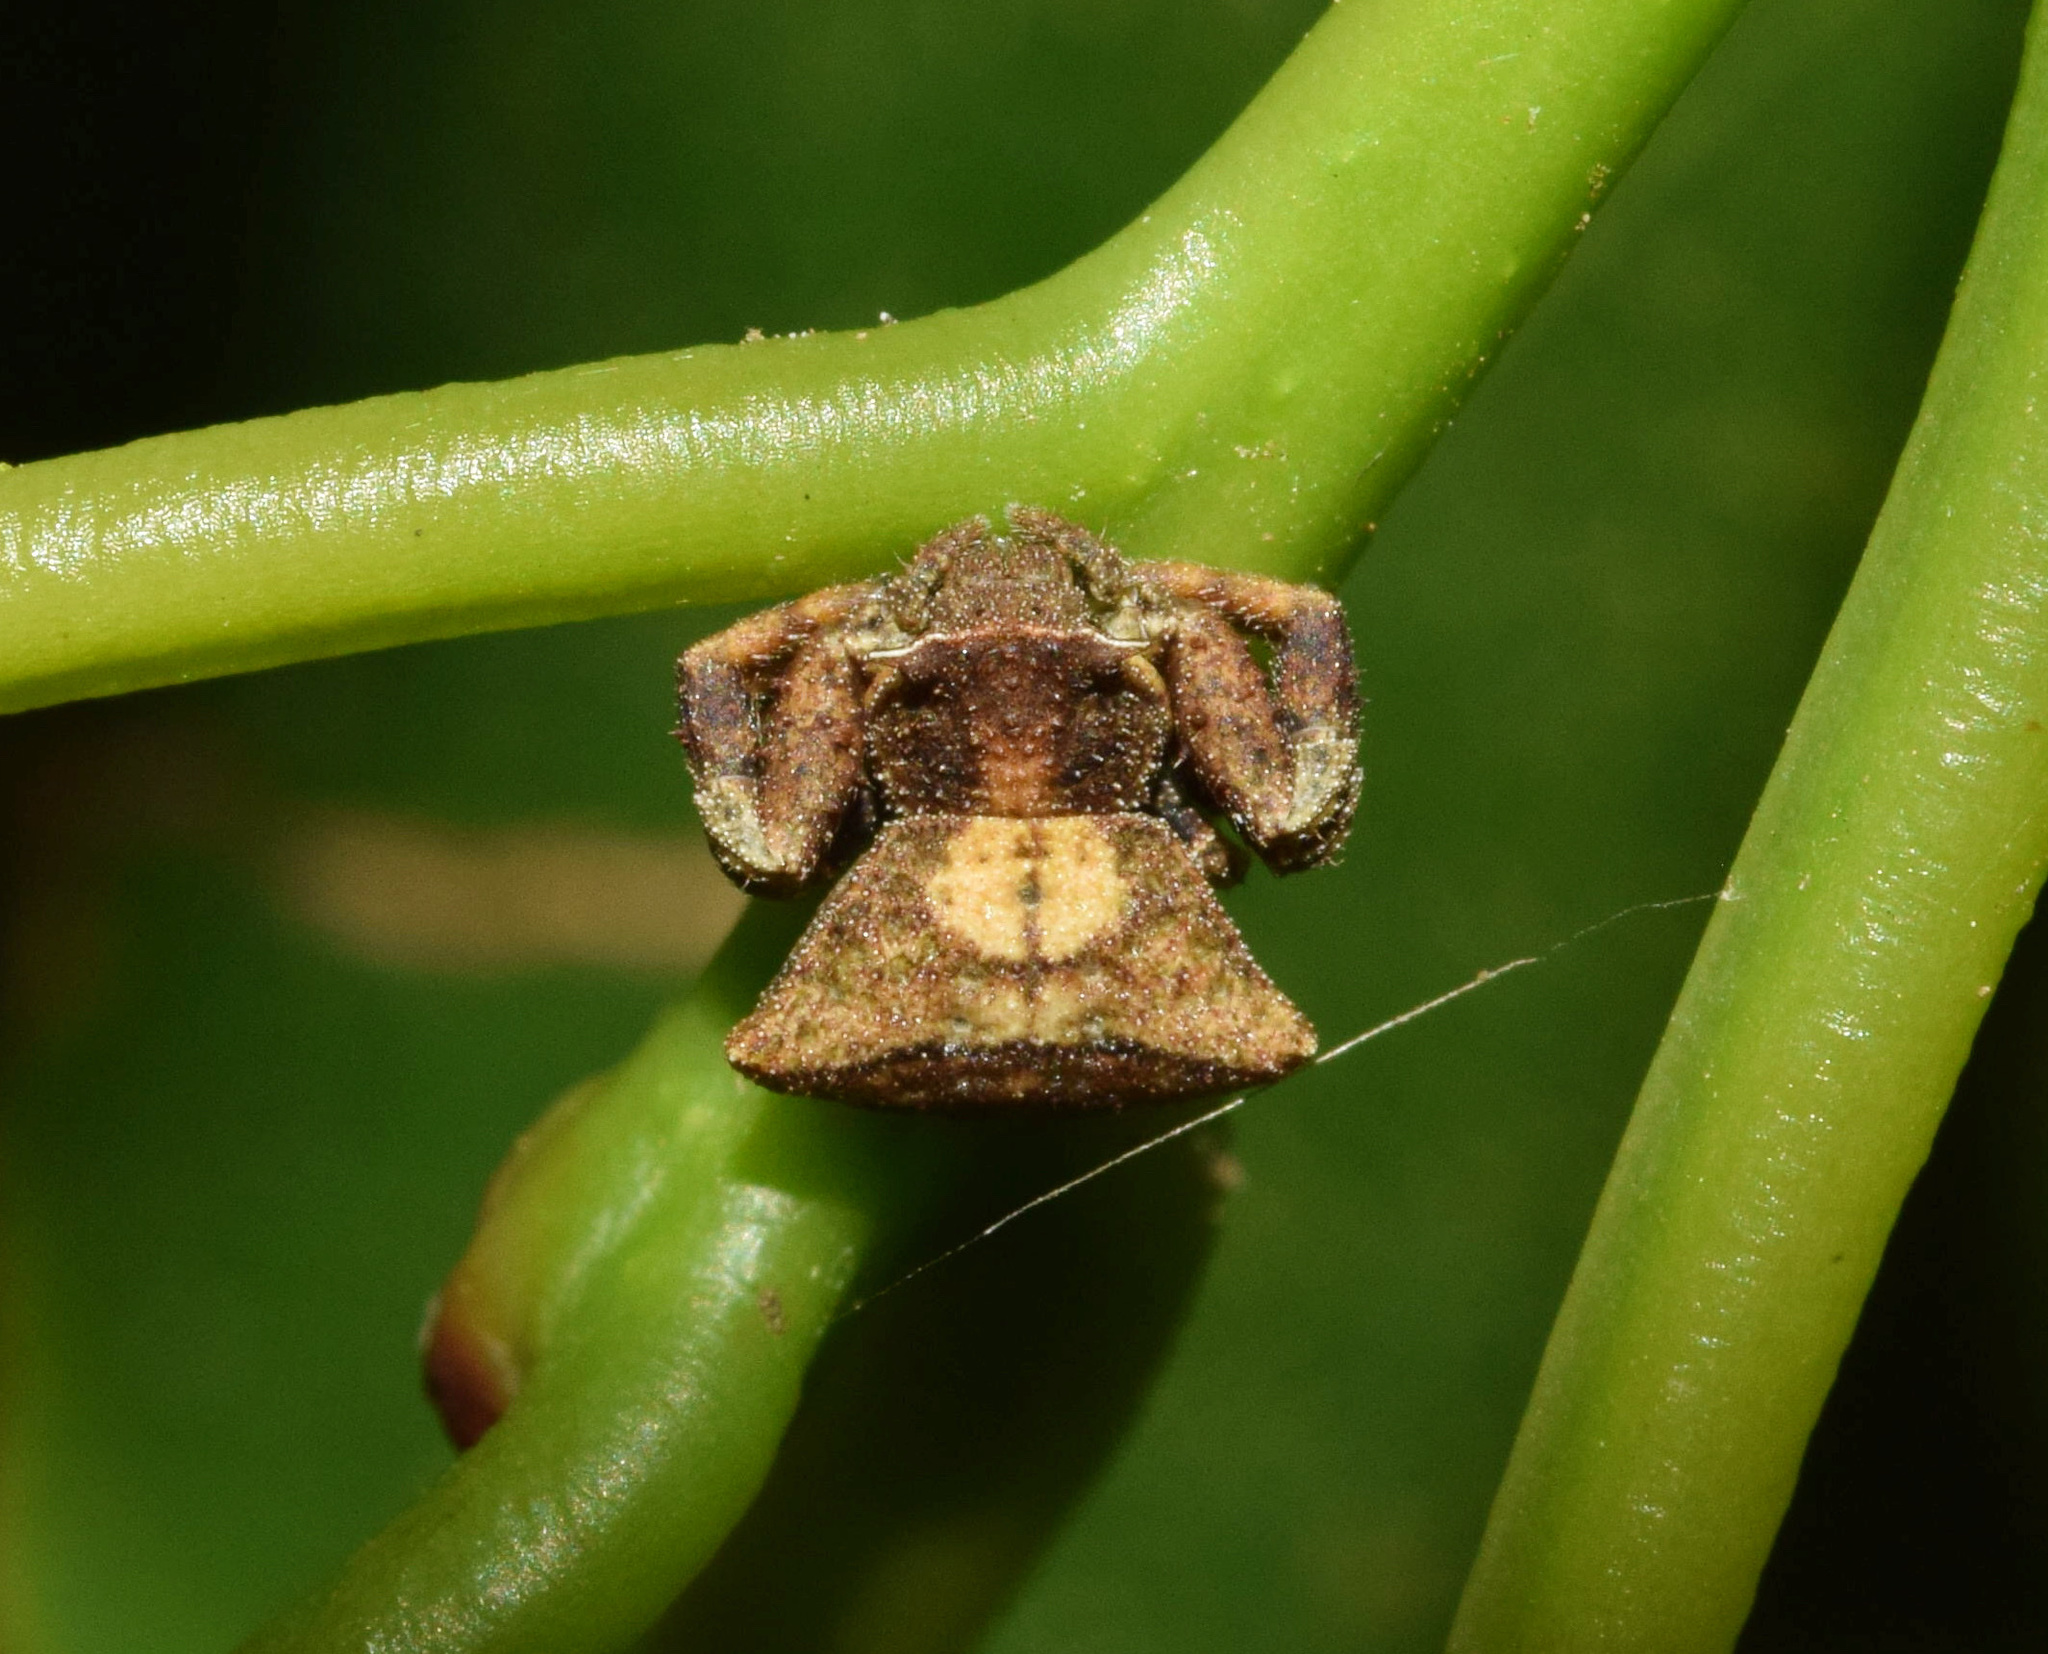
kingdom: Animalia
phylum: Arthropoda
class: Arachnida
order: Araneae
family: Thomisidae
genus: Thomisus
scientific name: Thomisus scrupeus
